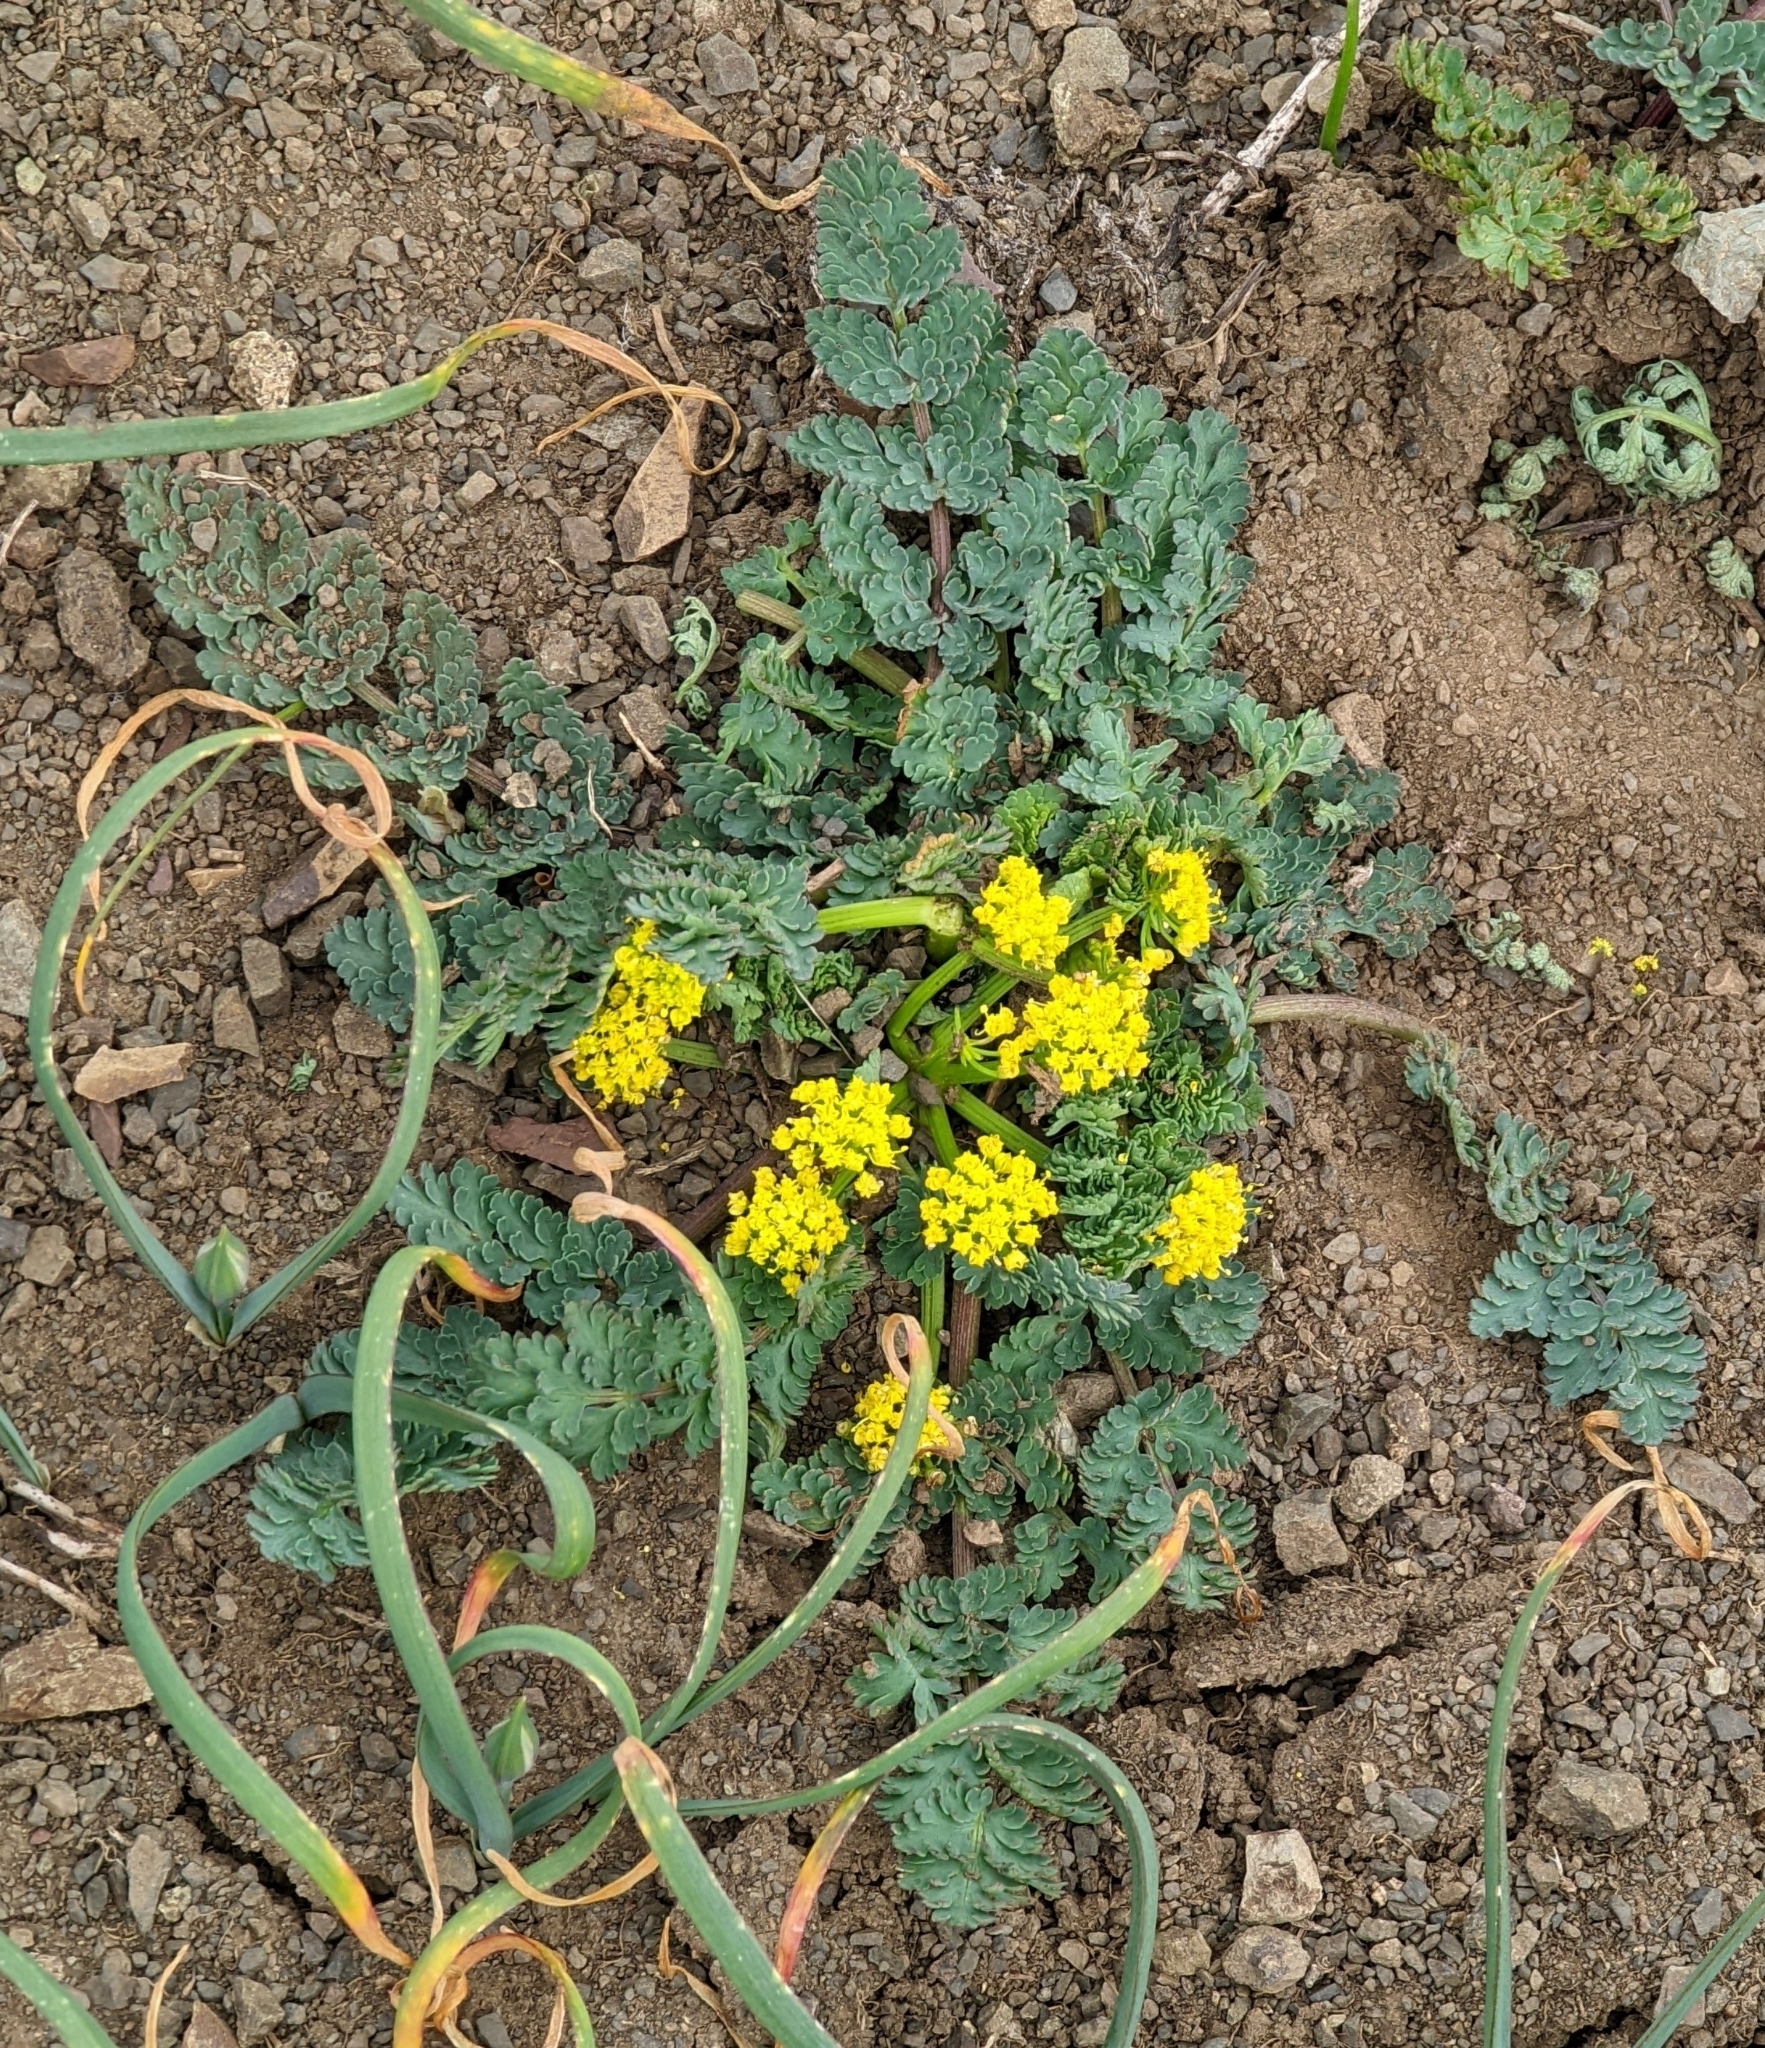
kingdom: Plantae
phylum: Tracheophyta
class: Magnoliopsida
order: Apiales
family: Apiaceae
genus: Lomatium
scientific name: Lomatium martindalei
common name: Cascade desert-parsley
